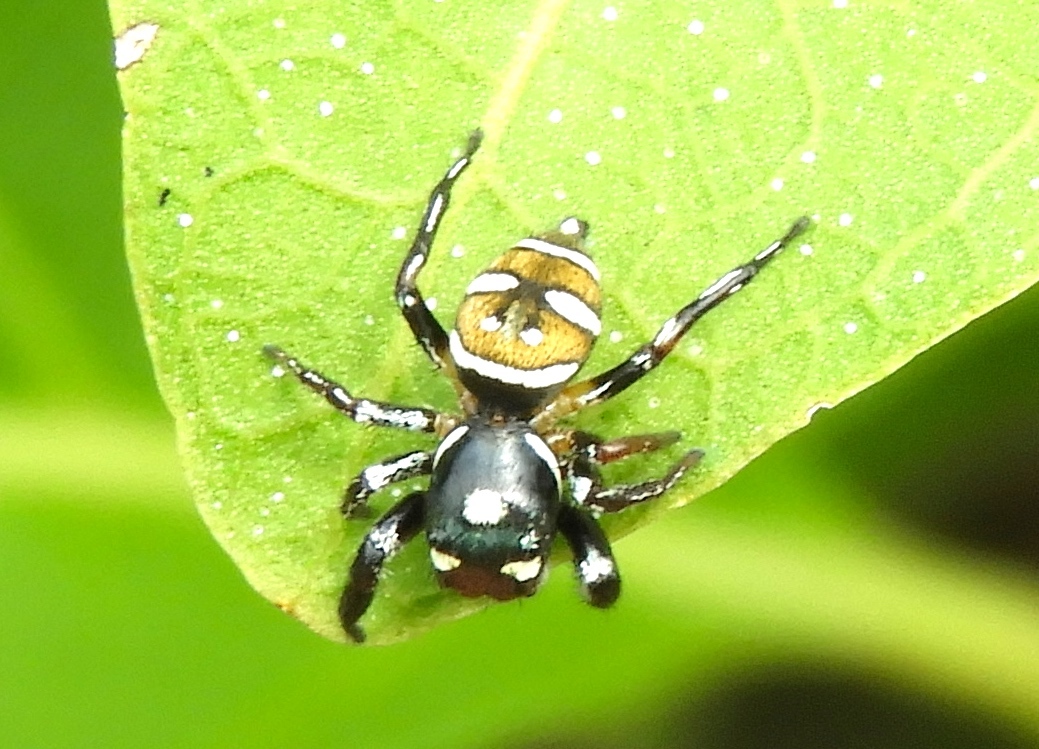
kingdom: Animalia
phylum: Arthropoda
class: Arachnida
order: Araneae
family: Salticidae
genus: Sassacus
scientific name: Sassacus
